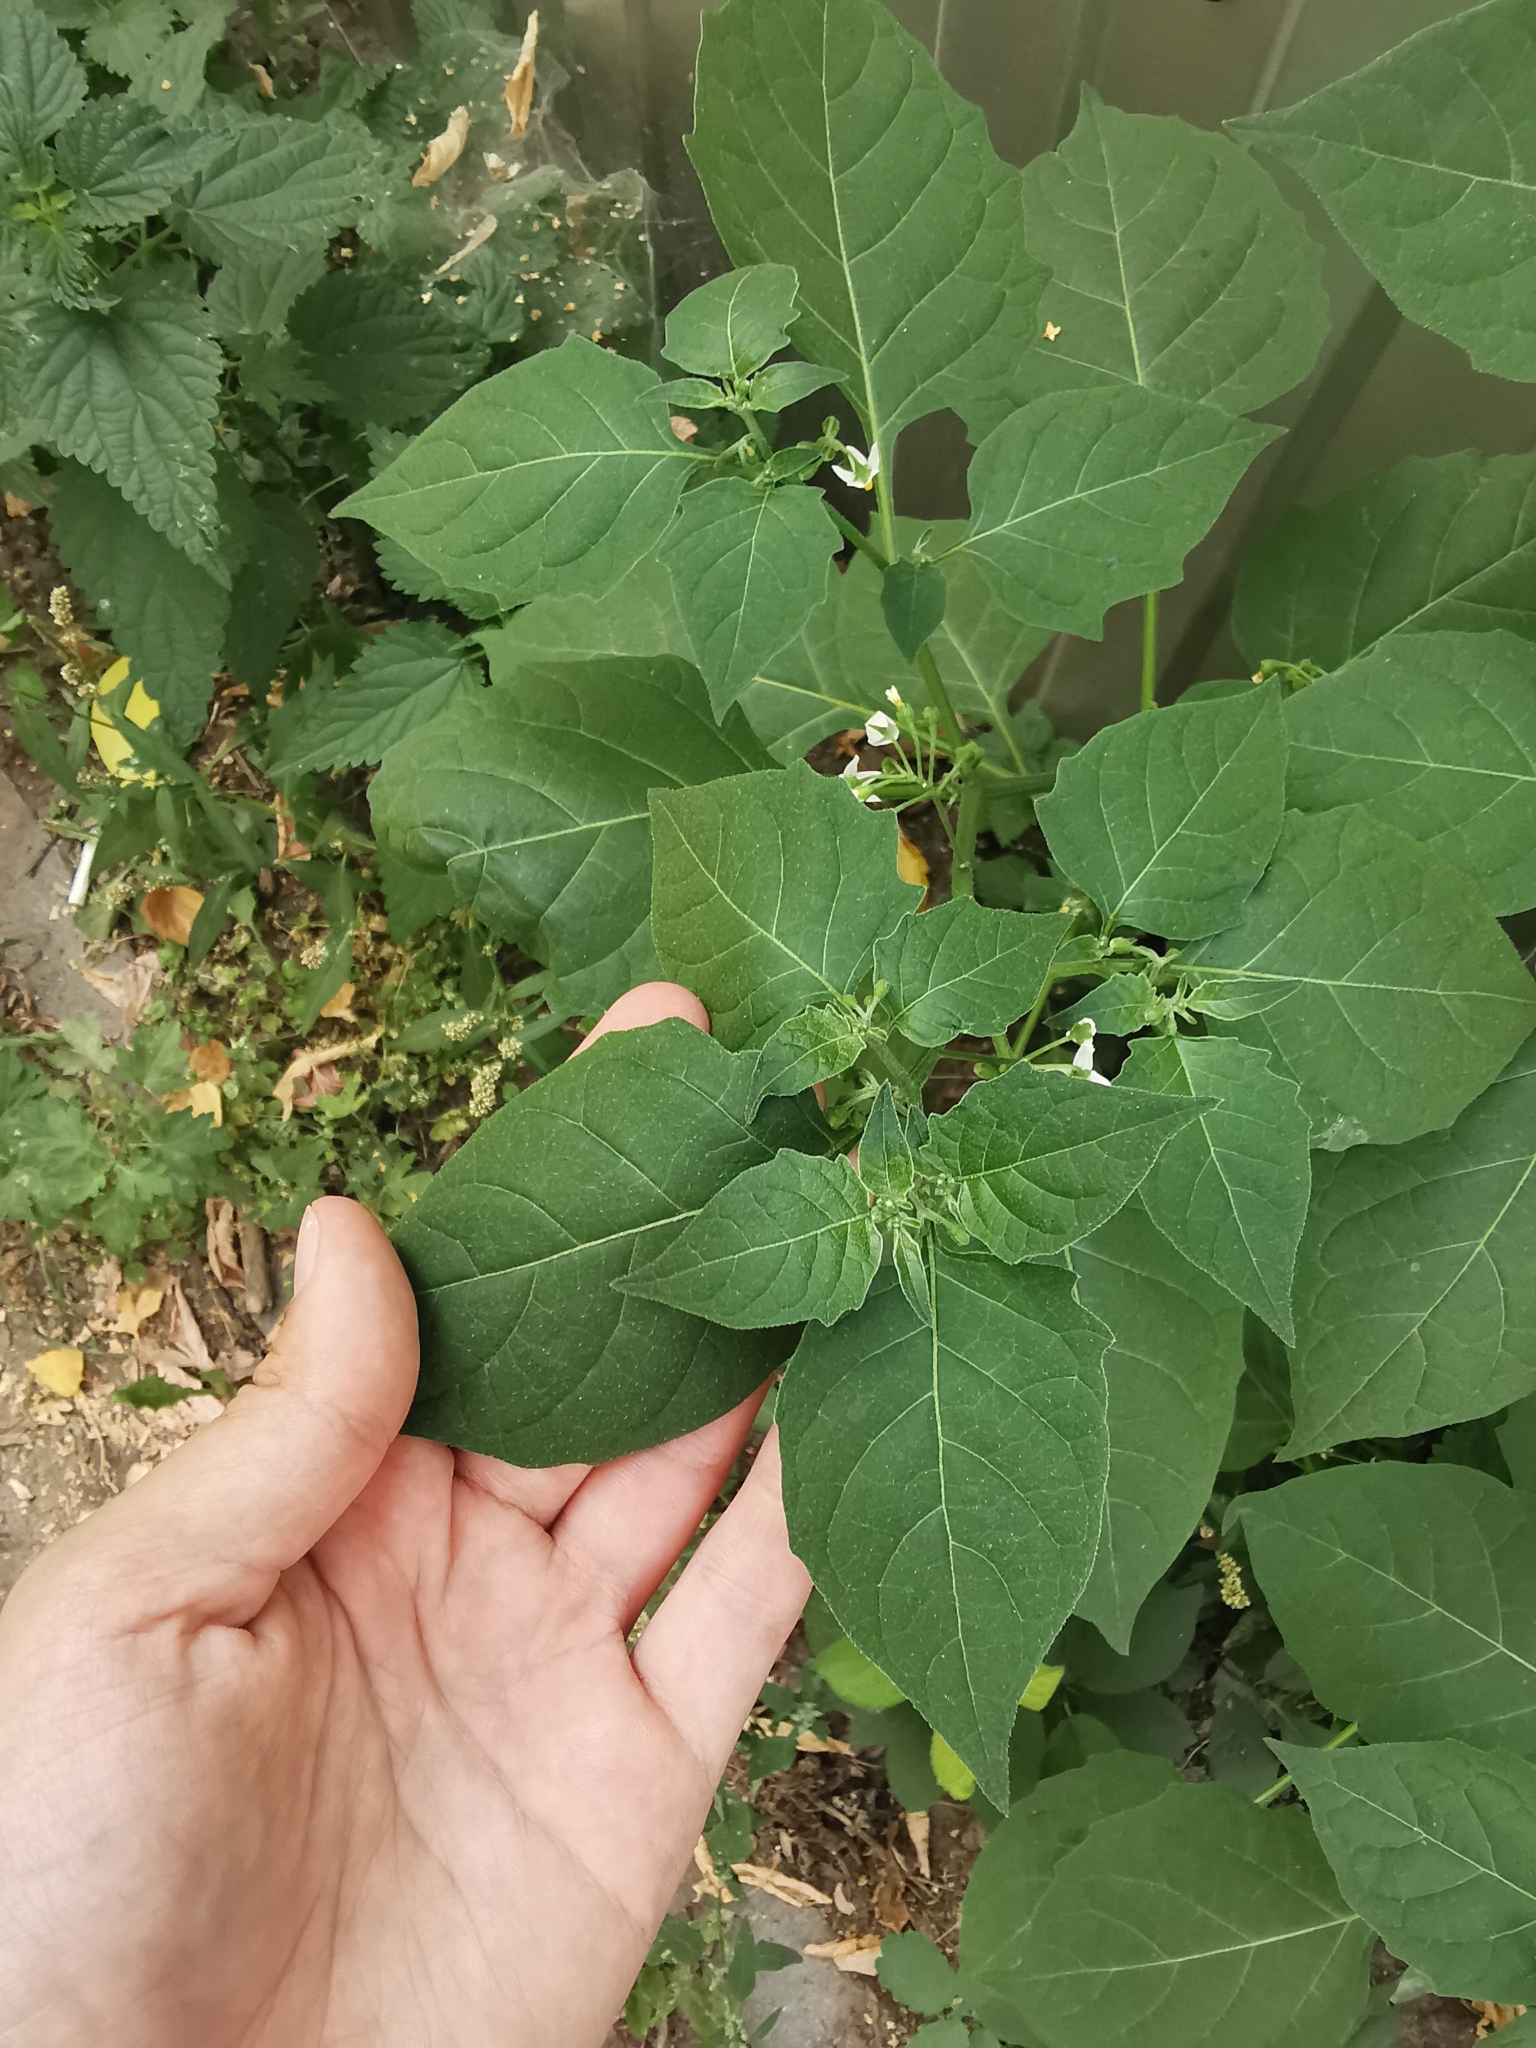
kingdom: Plantae
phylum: Tracheophyta
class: Magnoliopsida
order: Solanales
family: Solanaceae
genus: Solanum
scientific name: Solanum nigrum
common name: Black nightshade
